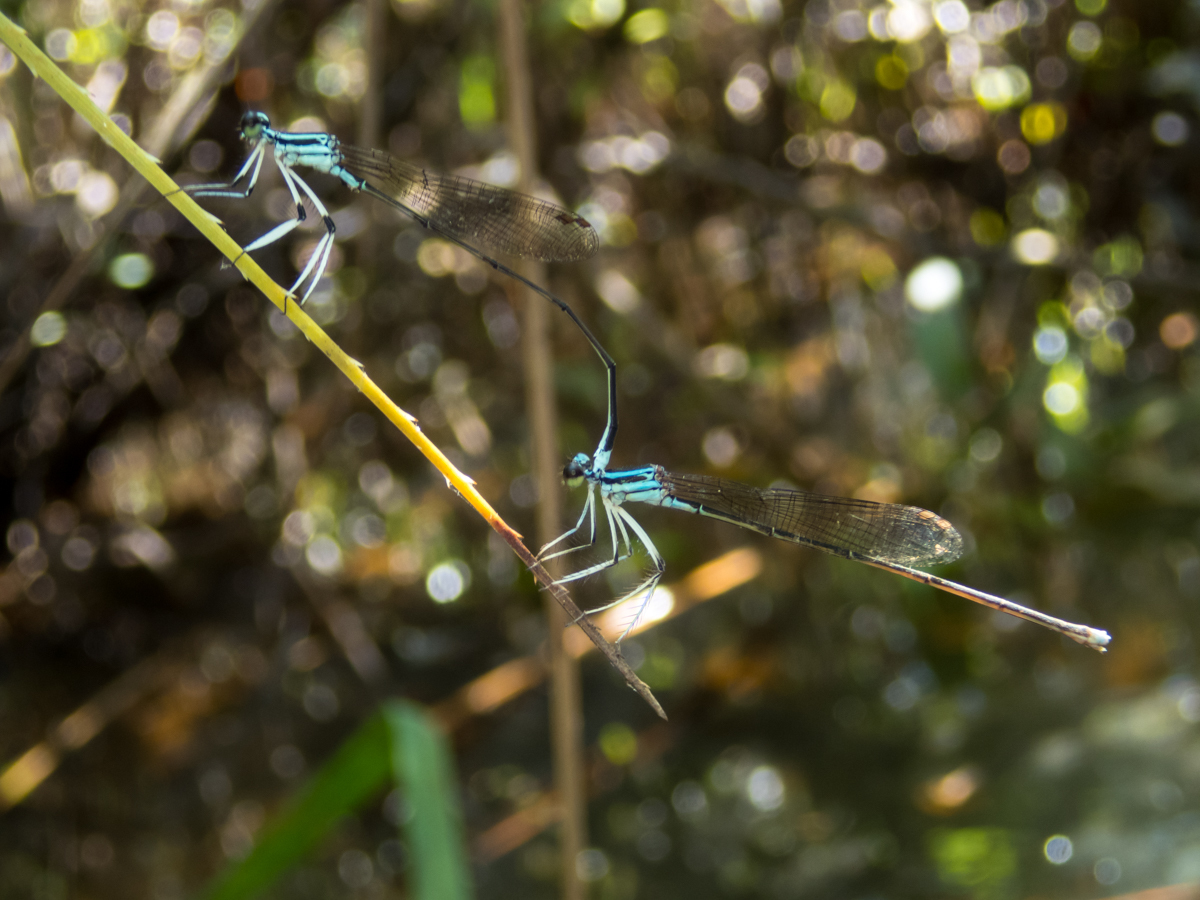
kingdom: Animalia
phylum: Arthropoda
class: Insecta
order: Odonata
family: Platycnemididae
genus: Pseudocopera
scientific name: Pseudocopera ciliata
